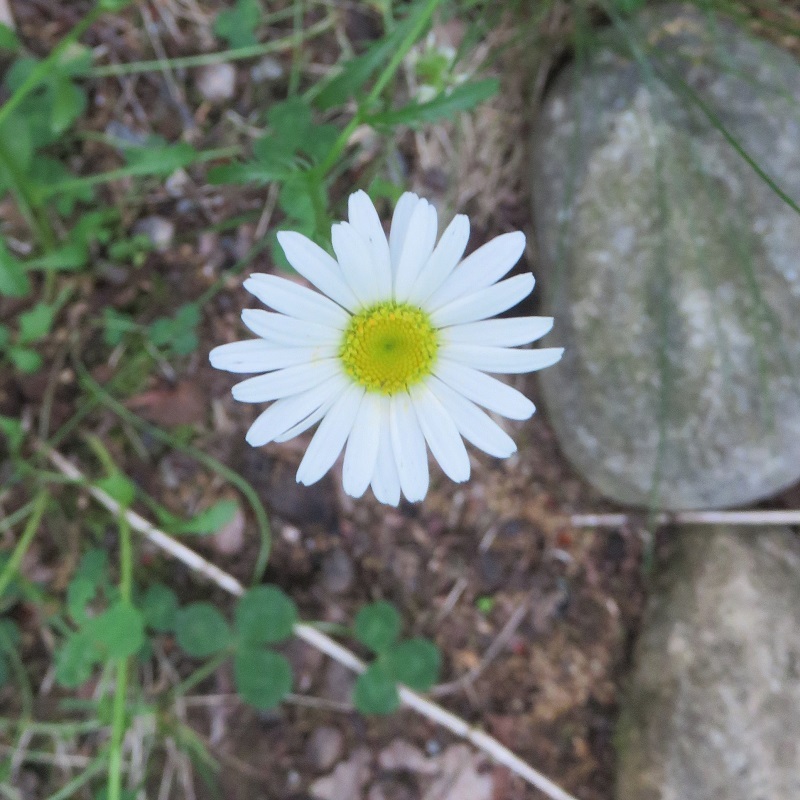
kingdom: Plantae
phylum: Tracheophyta
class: Magnoliopsida
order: Asterales
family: Asteraceae
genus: Leucanthemum
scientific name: Leucanthemum vulgare
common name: Oxeye daisy
